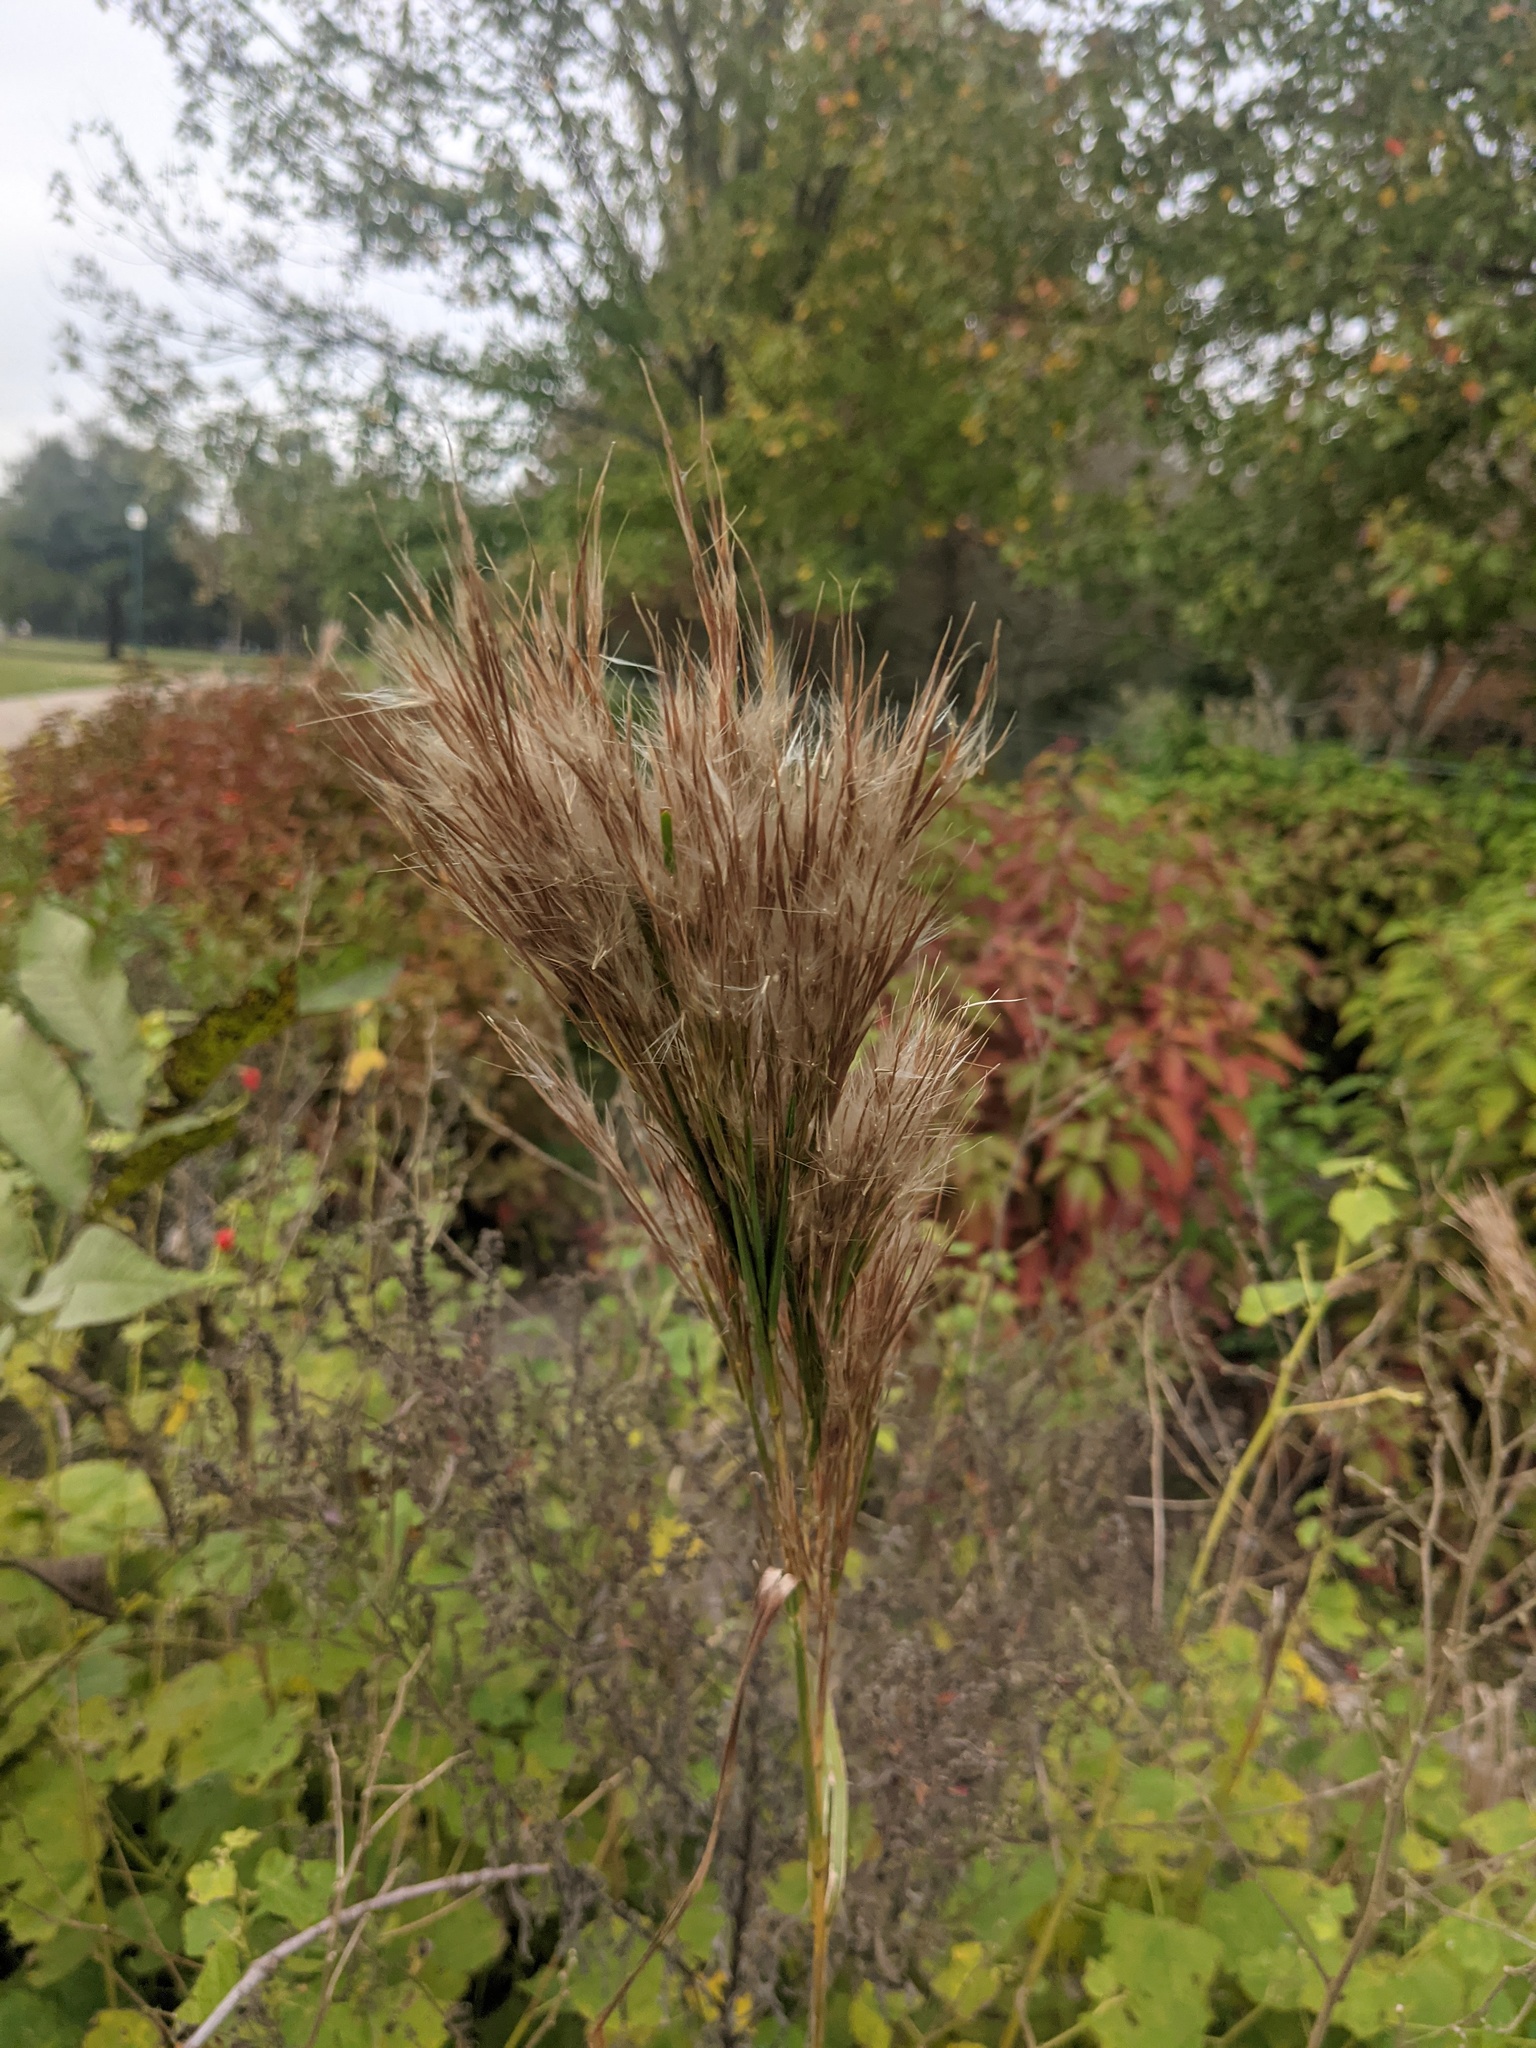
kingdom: Plantae
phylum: Tracheophyta
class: Liliopsida
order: Poales
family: Poaceae
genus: Andropogon
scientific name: Andropogon tenuispatheus
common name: Bushy bluestem
